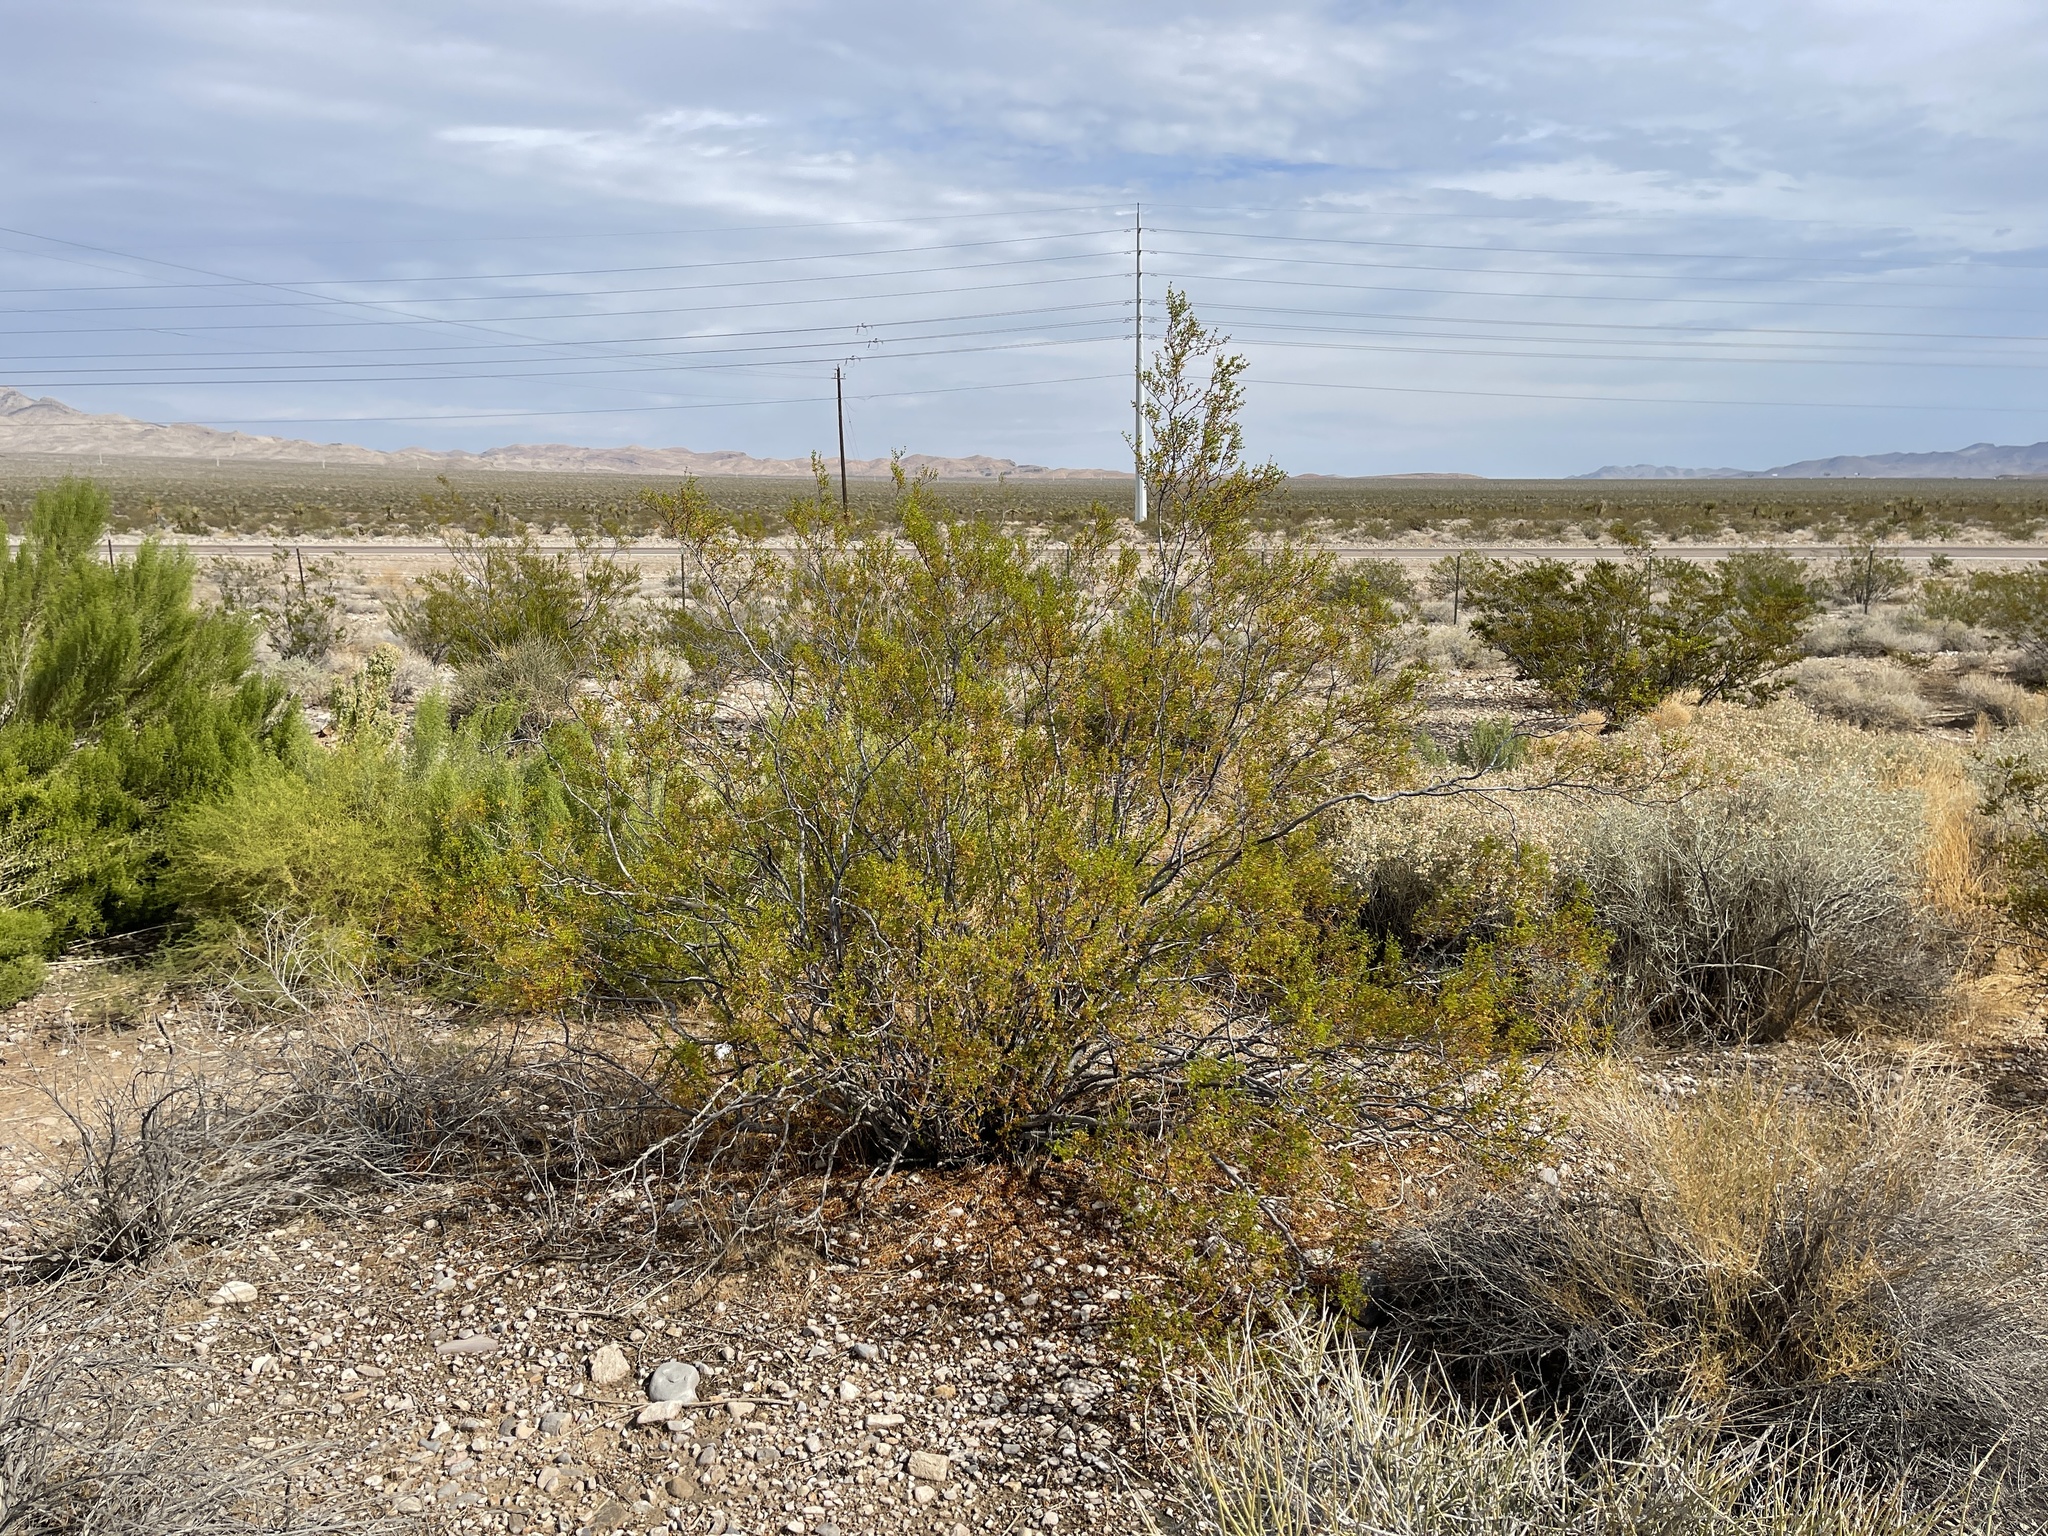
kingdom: Plantae
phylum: Tracheophyta
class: Magnoliopsida
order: Zygophyllales
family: Zygophyllaceae
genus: Larrea
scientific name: Larrea tridentata
